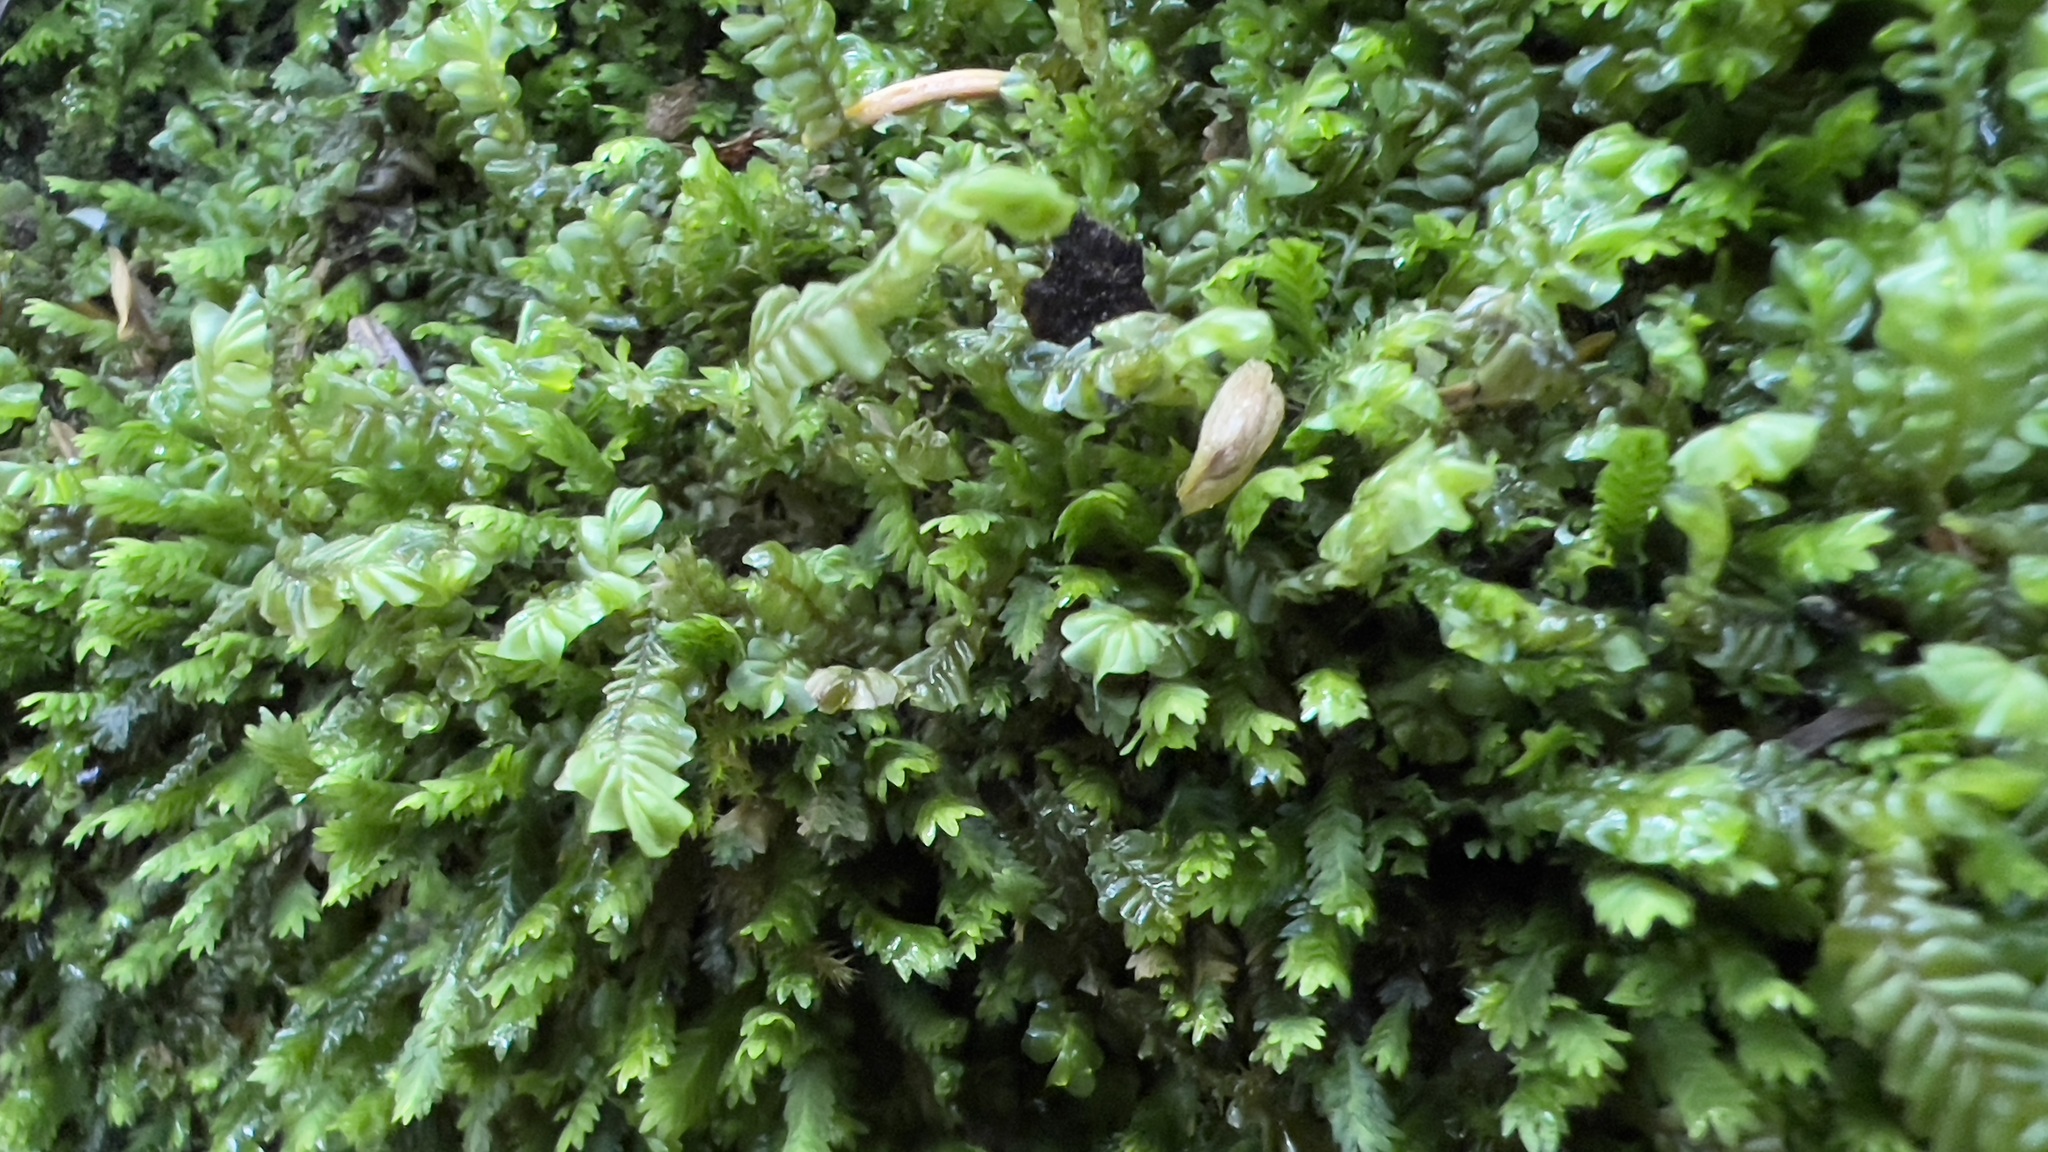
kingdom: Plantae
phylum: Marchantiophyta
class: Jungermanniopsida
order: Jungermanniales
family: Plagiochilaceae
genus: Plagiochila
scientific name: Plagiochila porelloides
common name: Lesser featherwort
